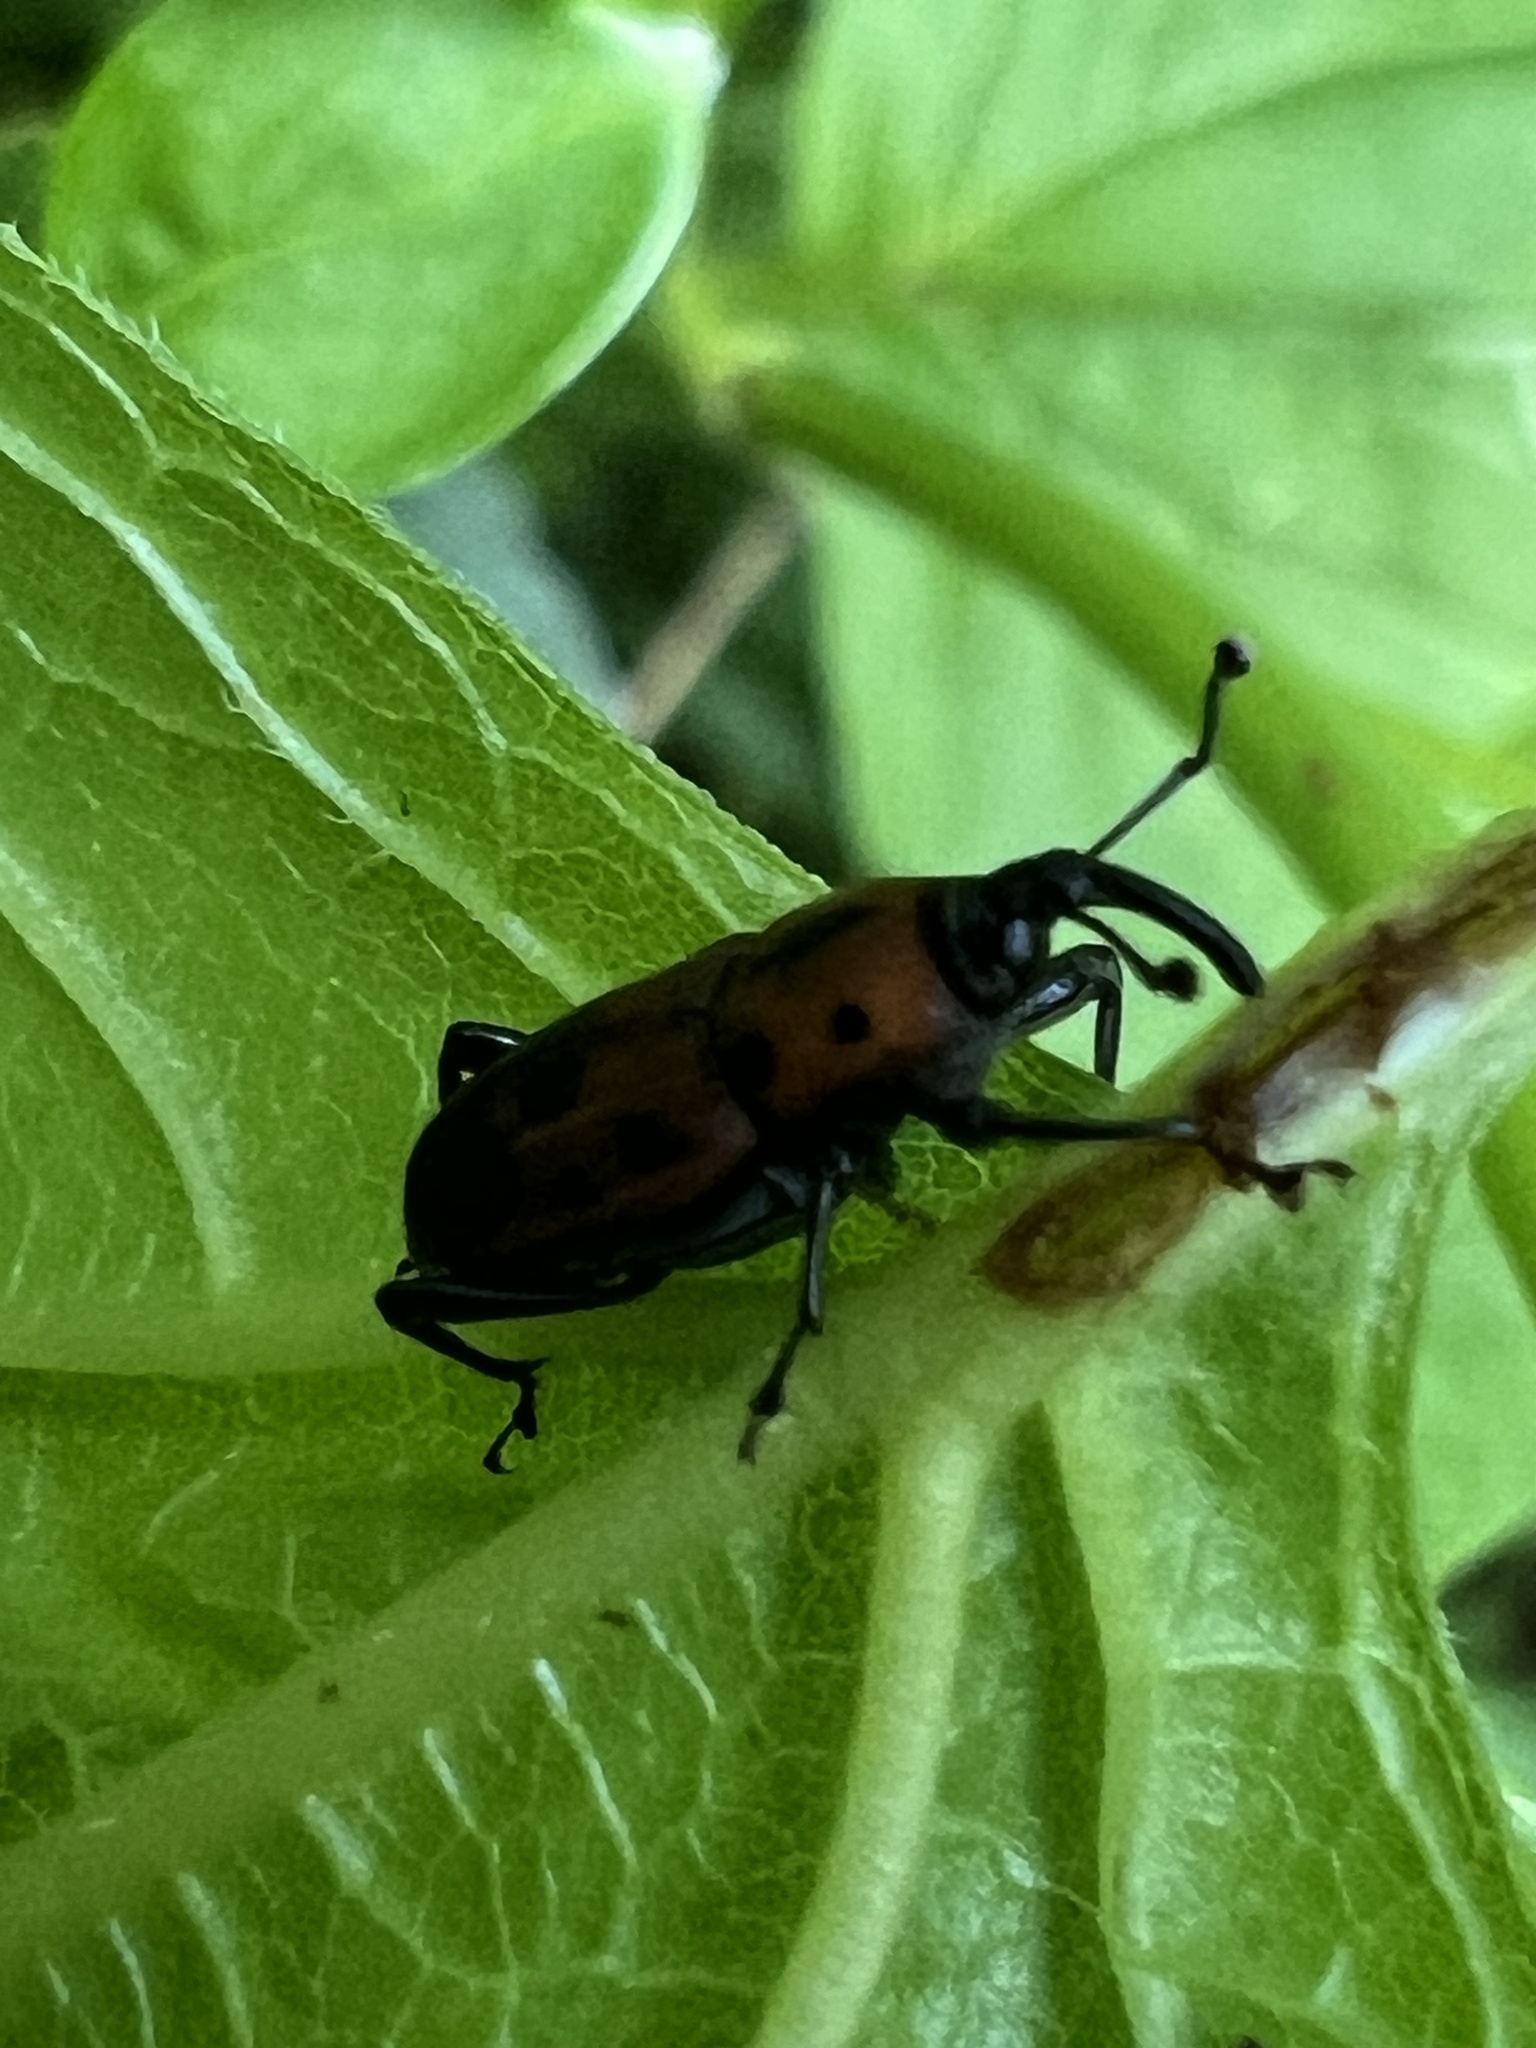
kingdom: Animalia
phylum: Arthropoda
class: Insecta
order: Coleoptera
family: Dryophthoridae
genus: Rhodobaenus
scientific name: Rhodobaenus quinquepunctatus
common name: Cocklebur weevil
